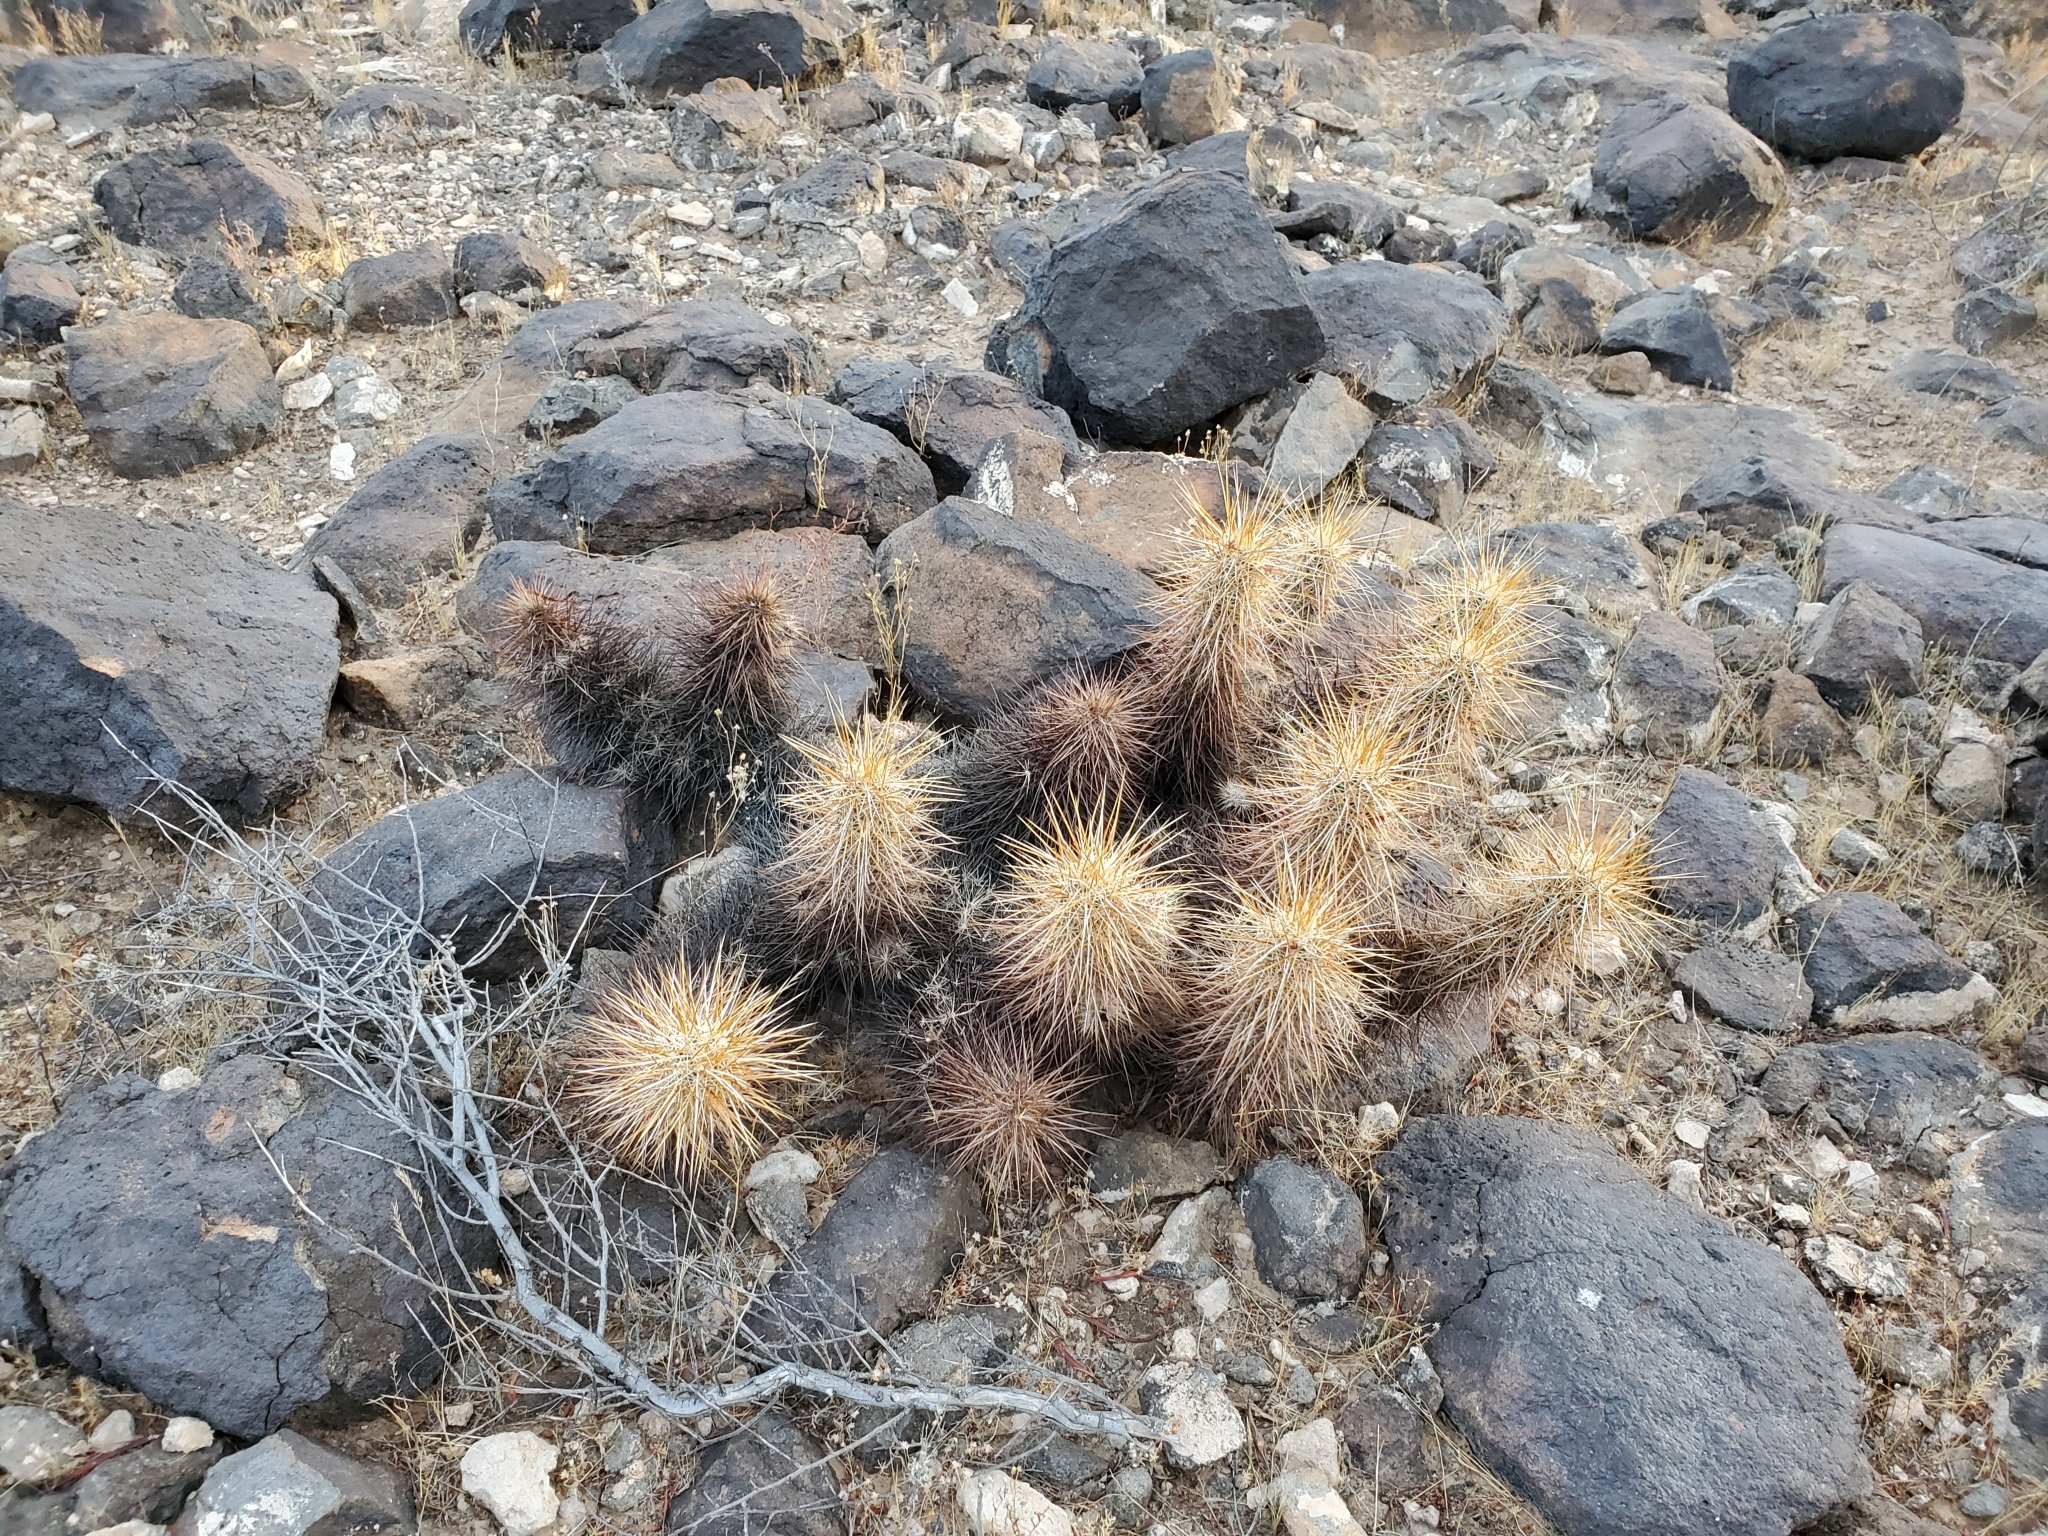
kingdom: Plantae
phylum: Tracheophyta
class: Magnoliopsida
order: Caryophyllales
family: Cactaceae
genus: Echinocereus
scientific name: Echinocereus engelmannii
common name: Engelmann's hedgehog cactus
